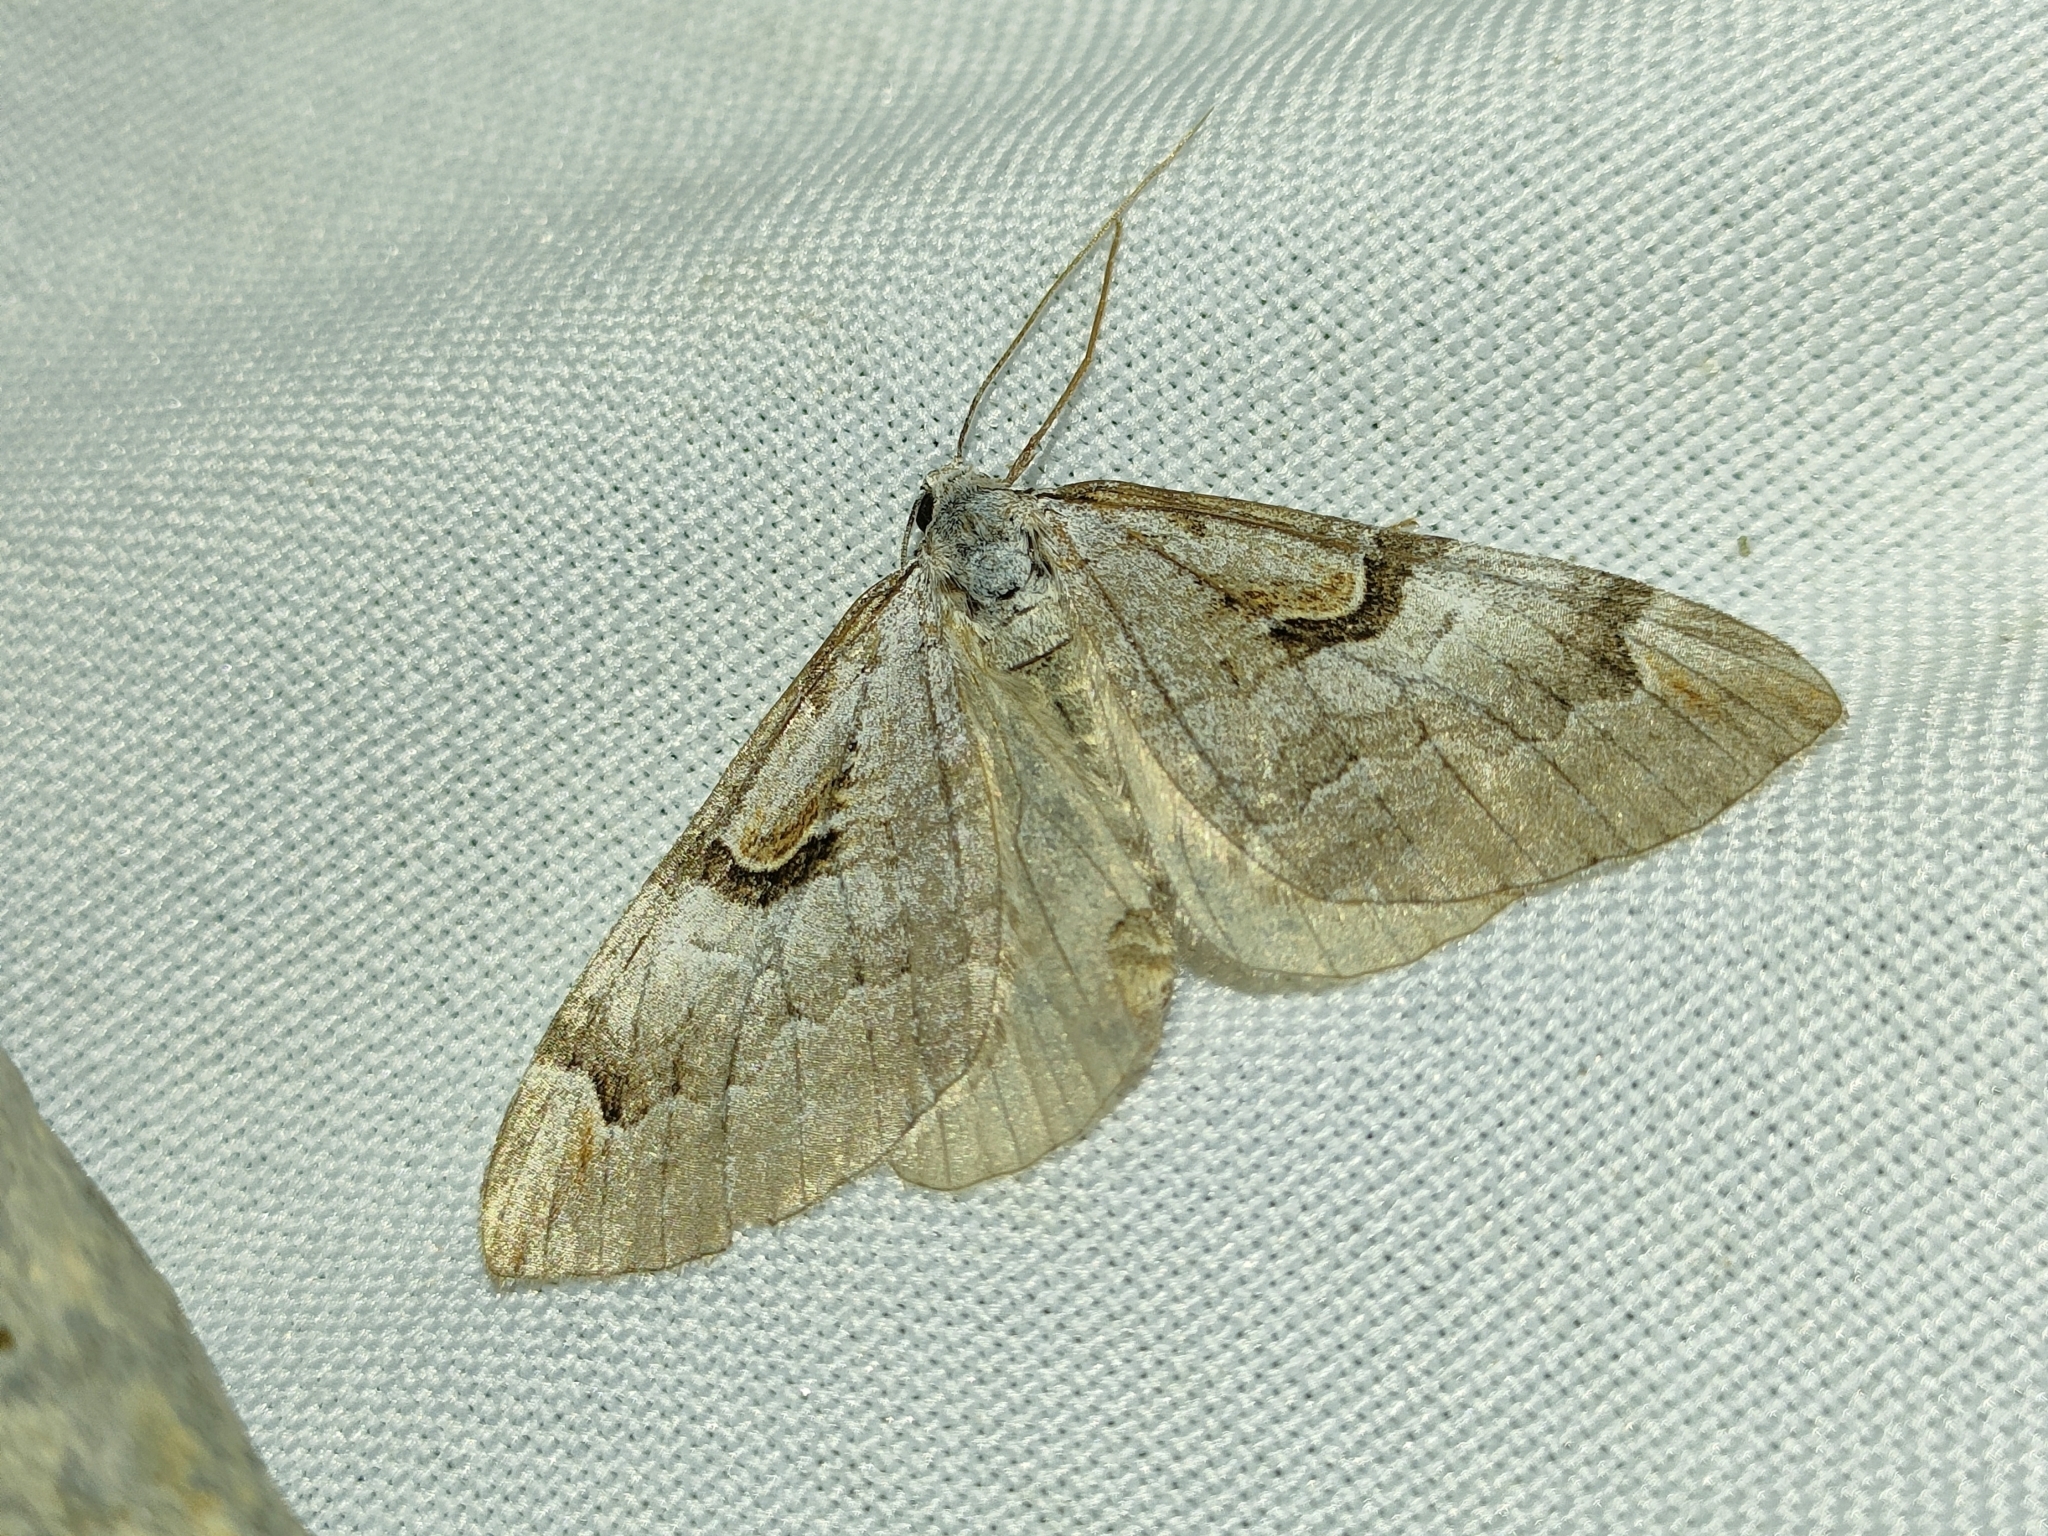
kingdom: Animalia
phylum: Arthropoda
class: Insecta
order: Lepidoptera
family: Geometridae
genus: Aplocera
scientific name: Aplocera praeformata
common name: Purple treble-bar
